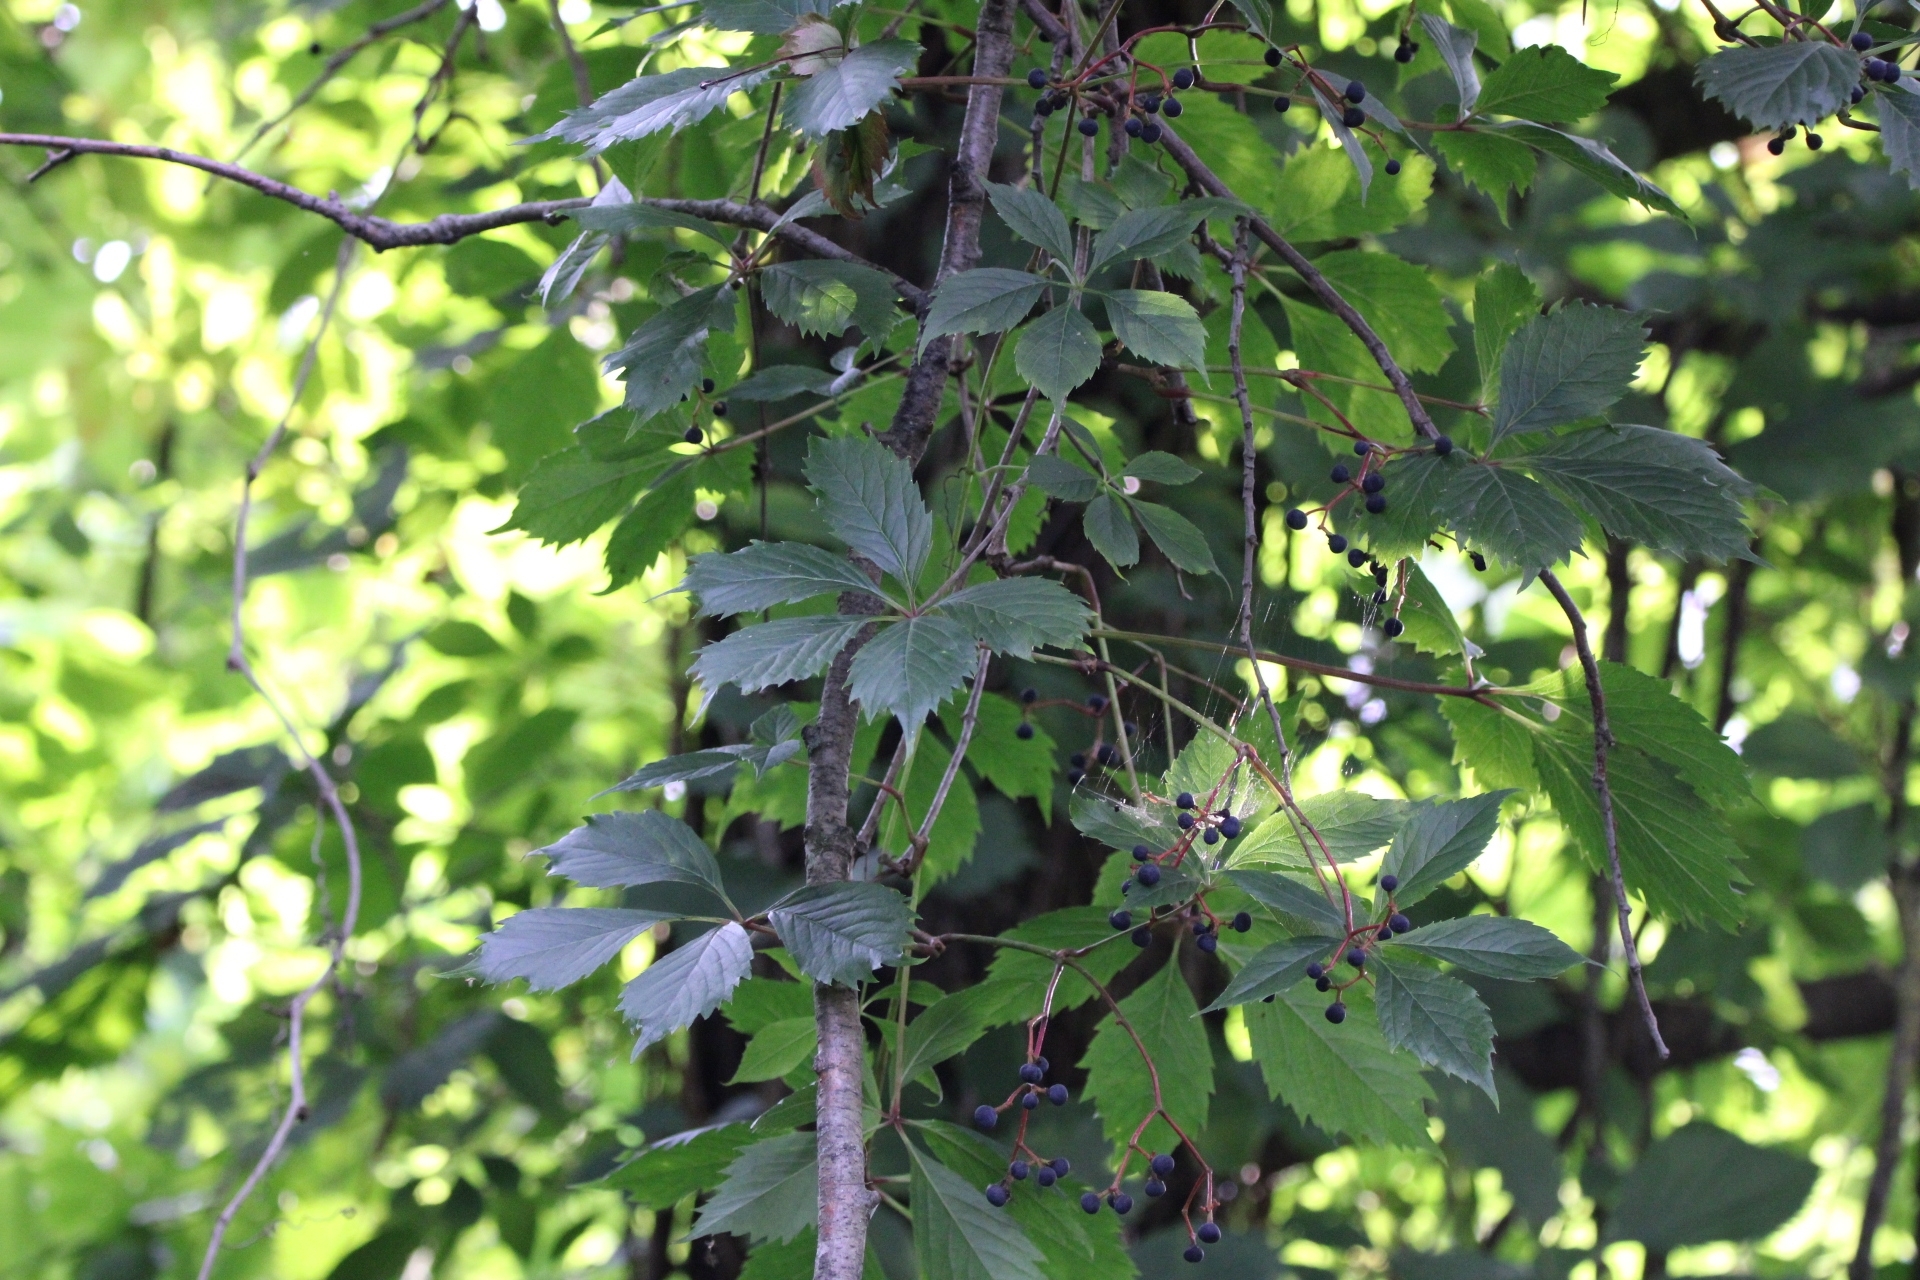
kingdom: Plantae
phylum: Tracheophyta
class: Magnoliopsida
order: Vitales
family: Vitaceae
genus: Parthenocissus
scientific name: Parthenocissus inserta
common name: False virginia-creeper
